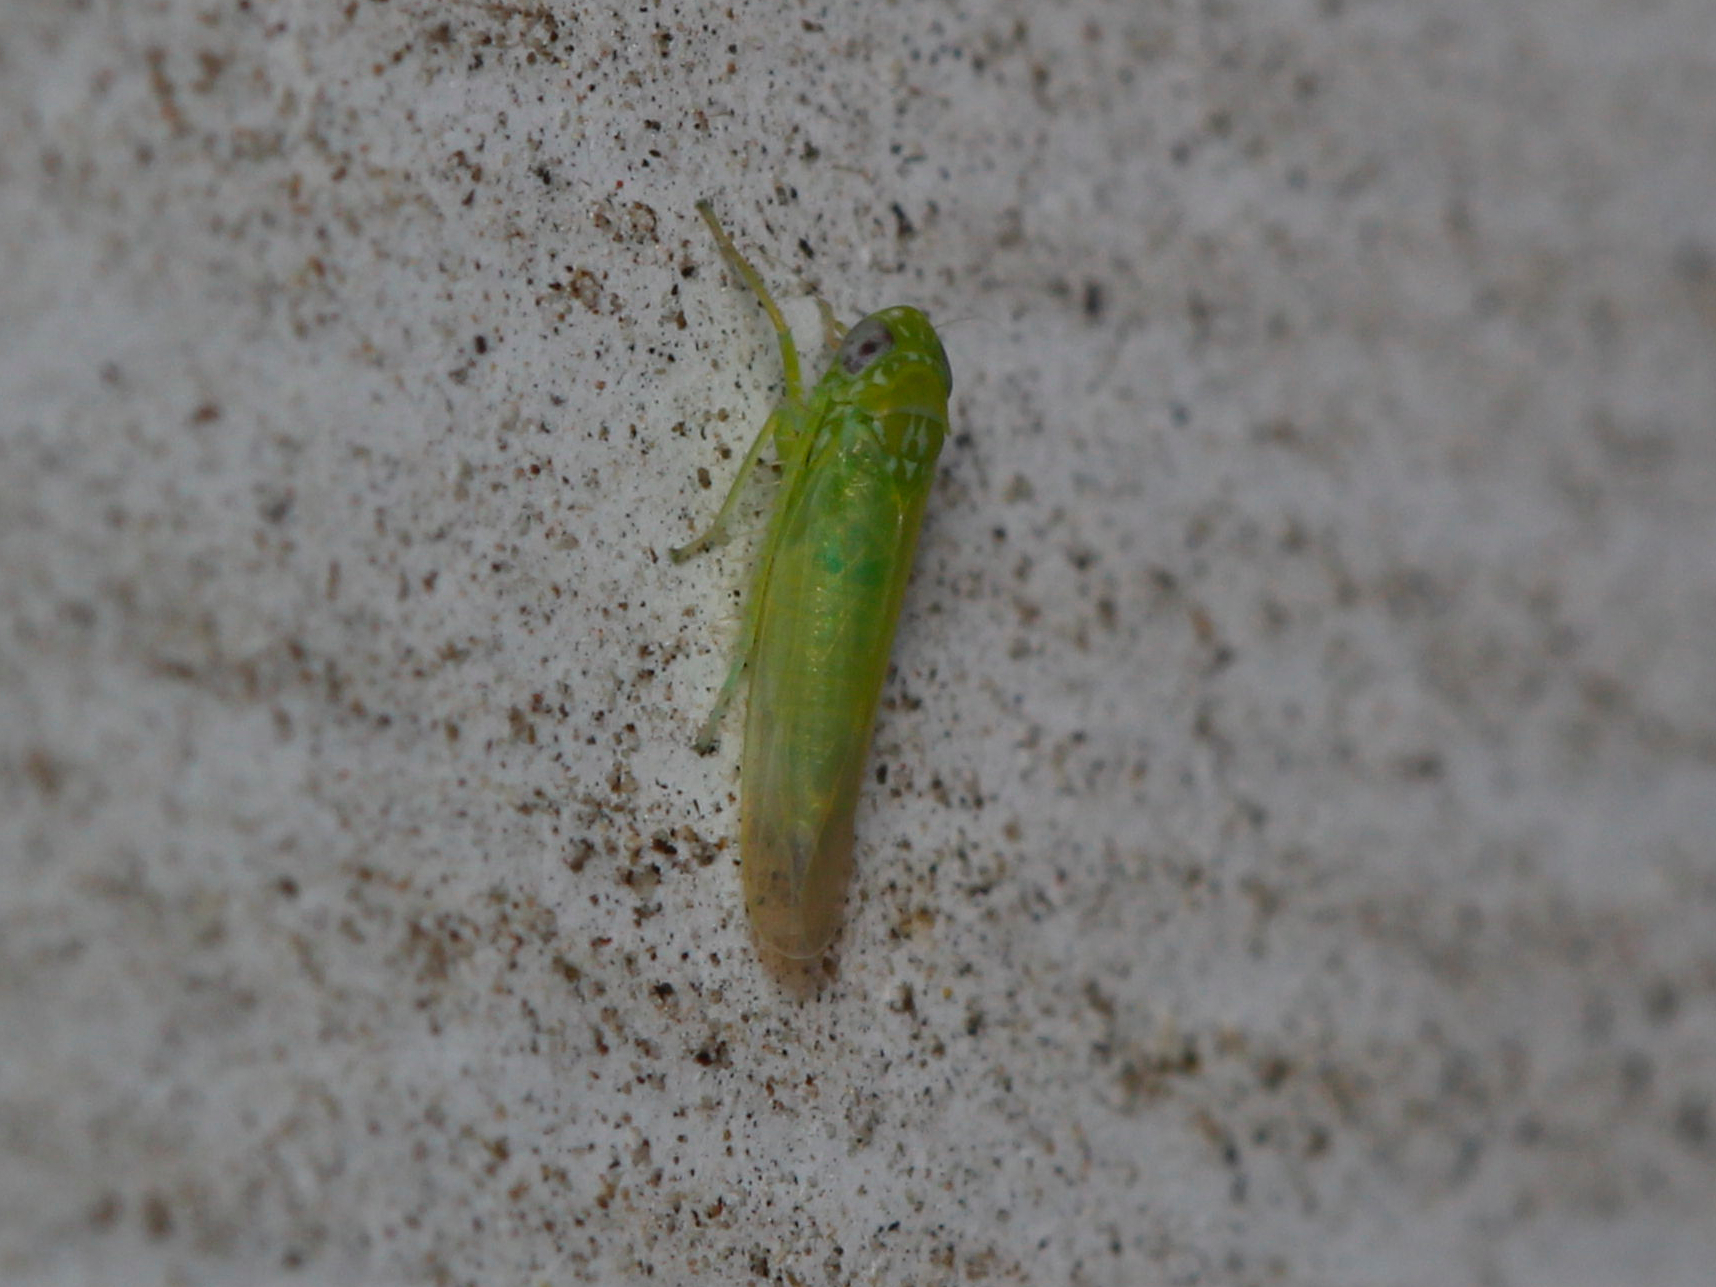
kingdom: Animalia
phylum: Arthropoda
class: Insecta
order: Hemiptera
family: Cicadellidae
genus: Empoasca
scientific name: Empoasca fabae
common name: Potato leafhopper
